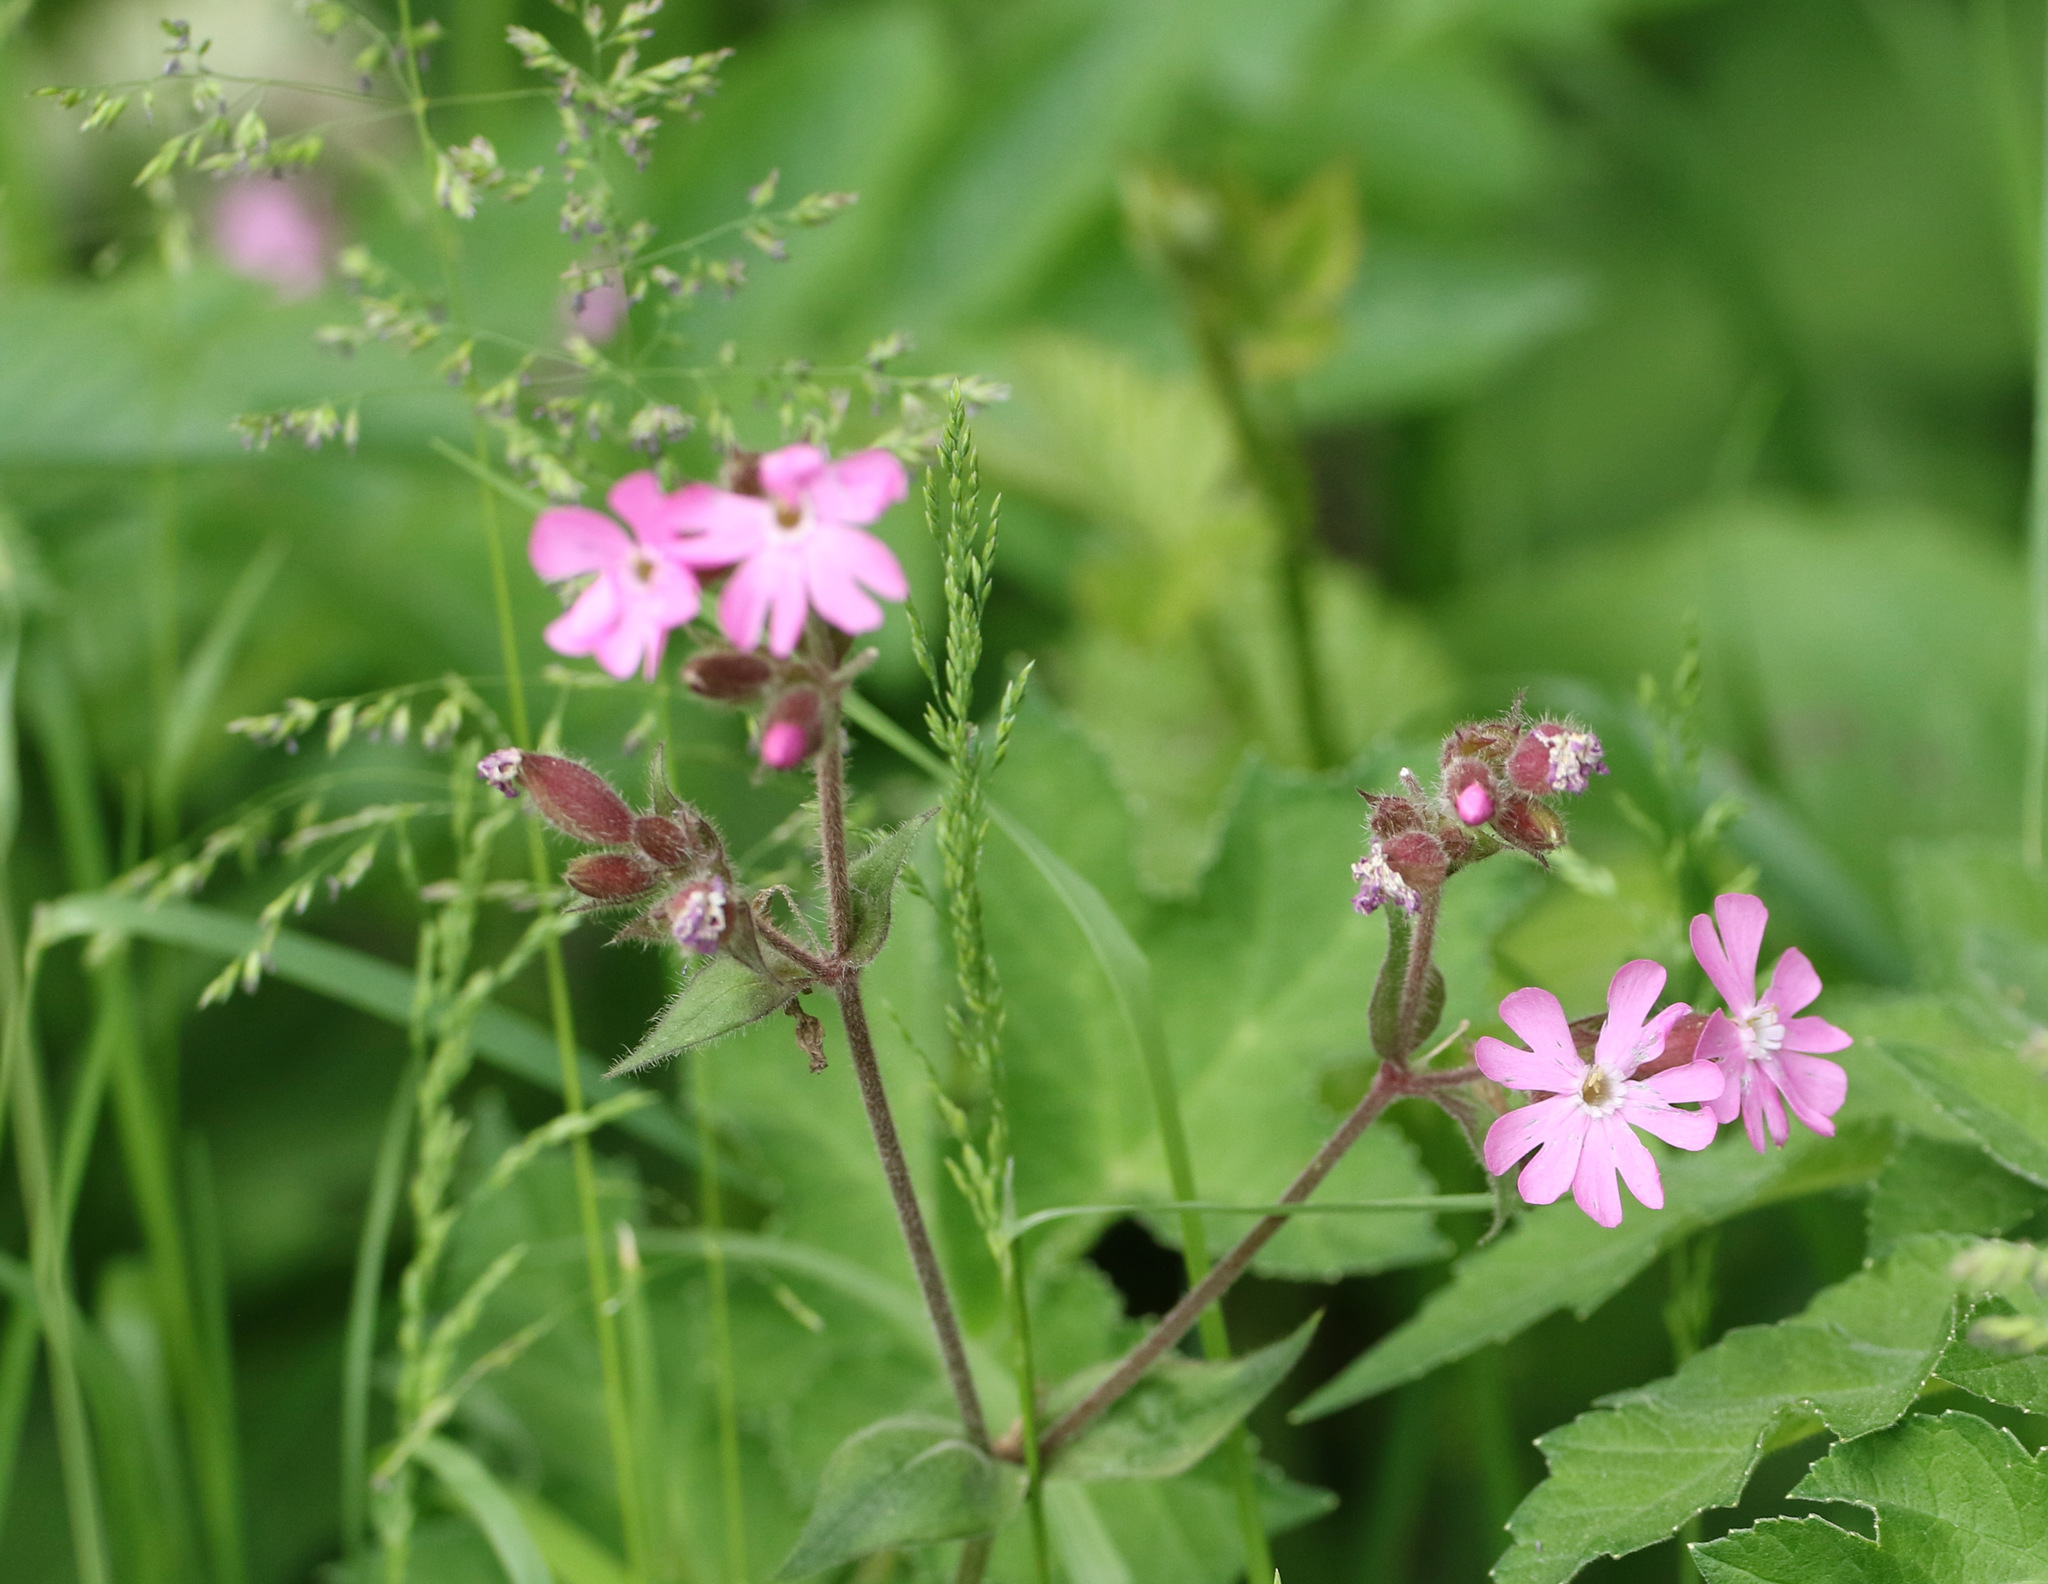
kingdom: Plantae
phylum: Tracheophyta
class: Magnoliopsida
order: Caryophyllales
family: Caryophyllaceae
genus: Silene
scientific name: Silene dioica
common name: Red campion
